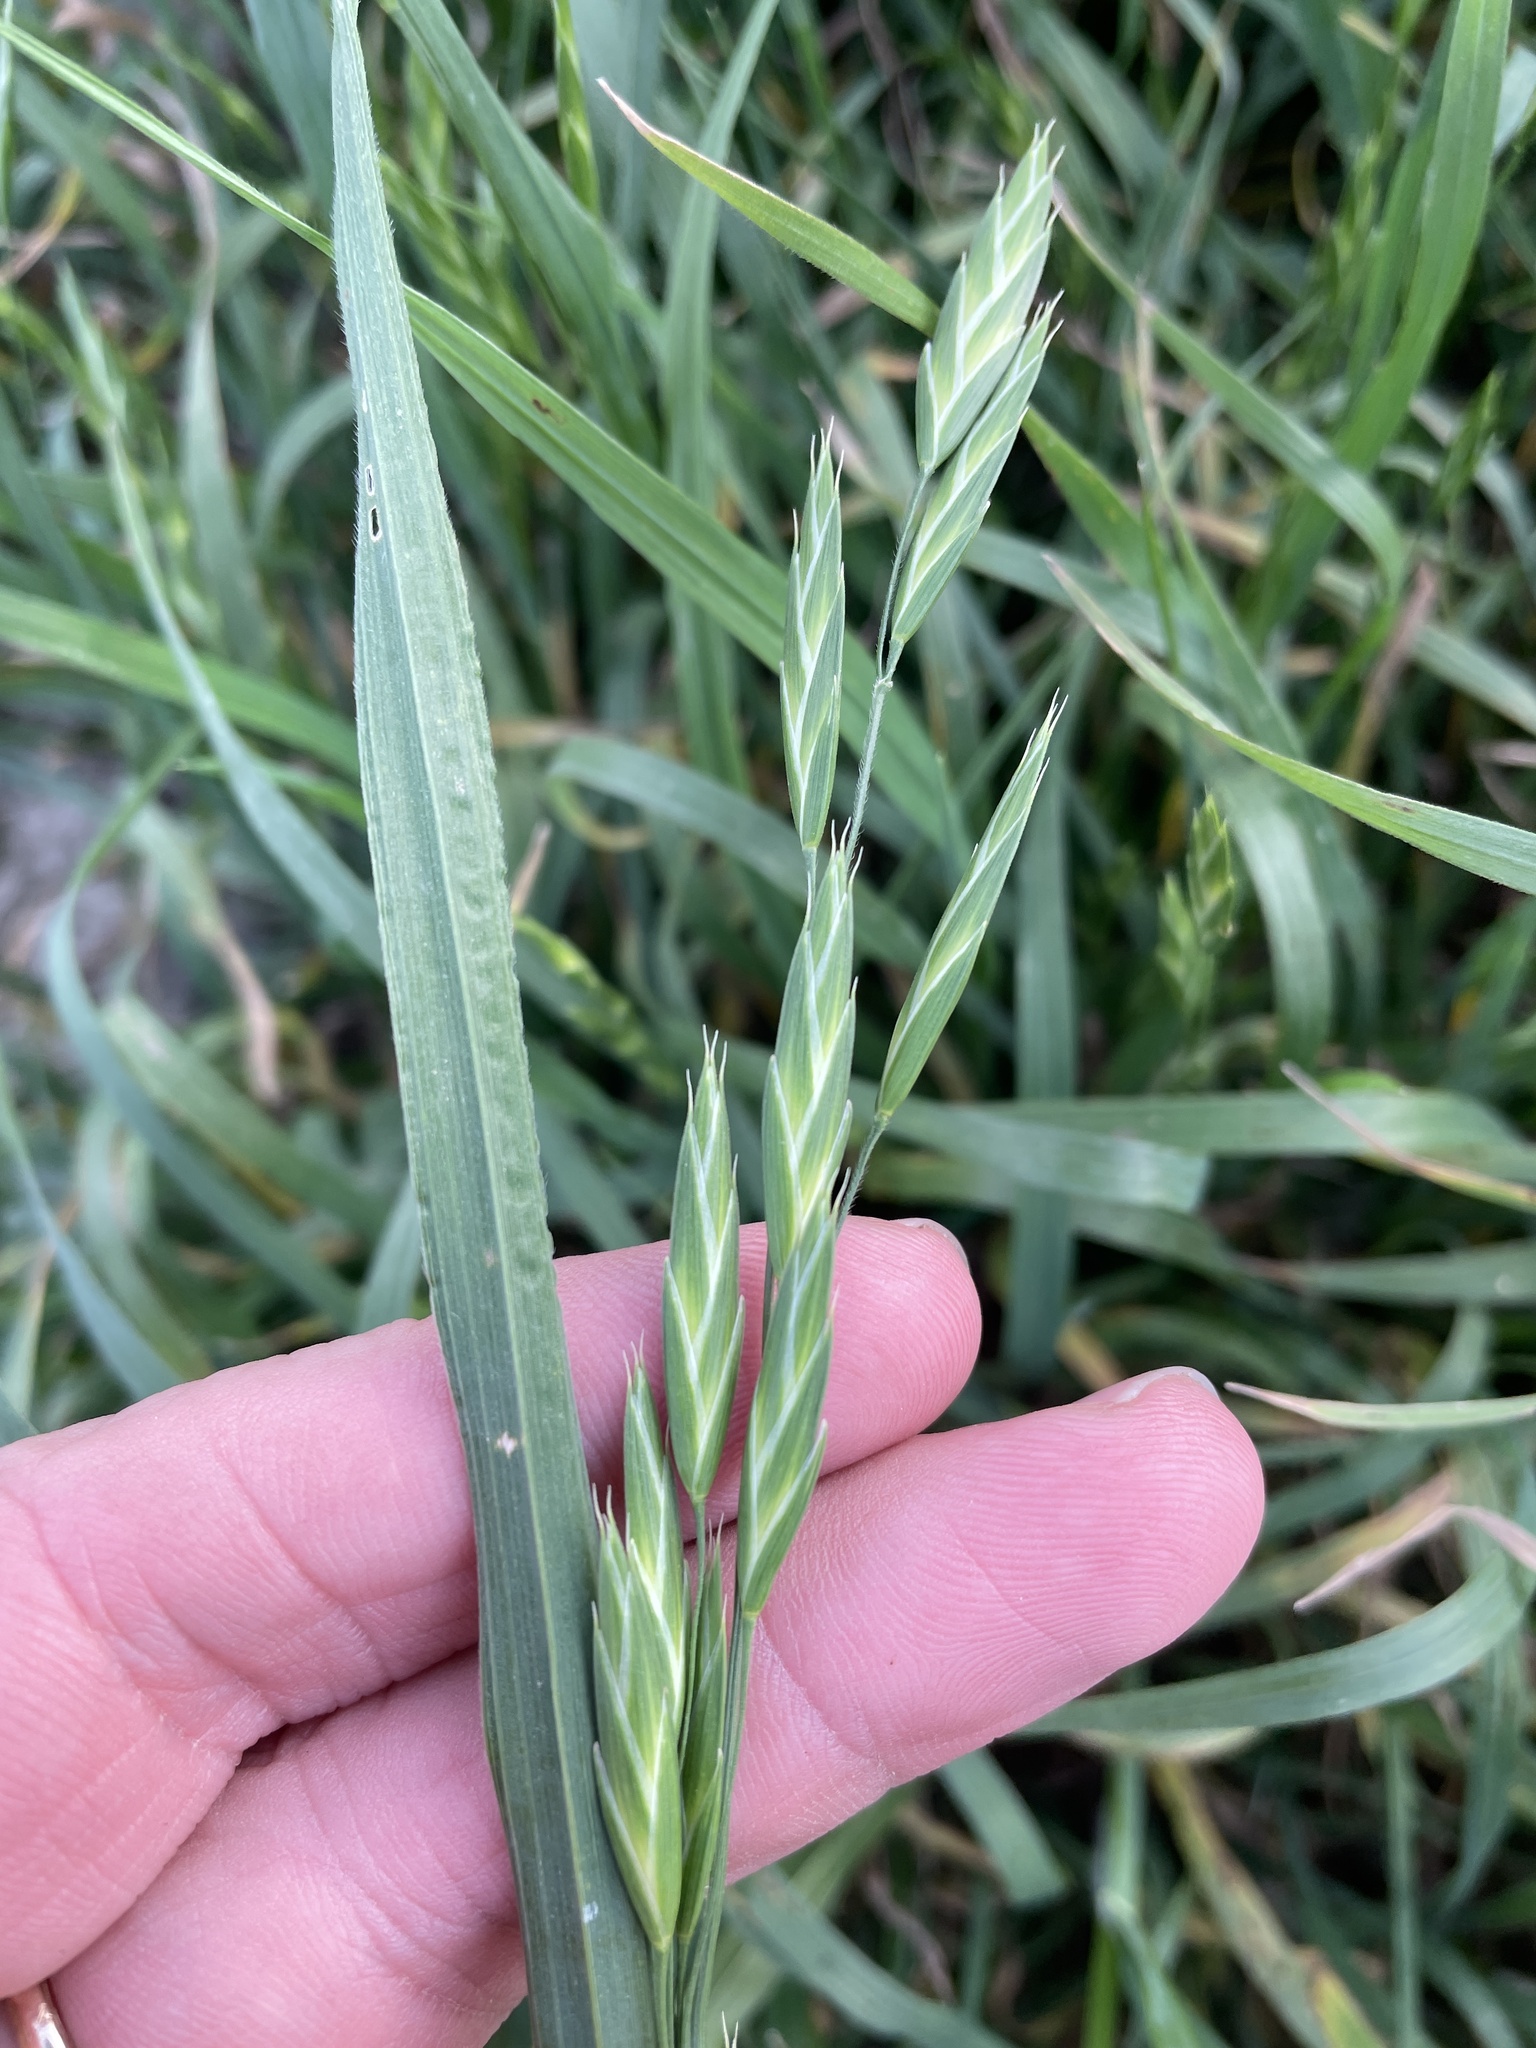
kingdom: Plantae
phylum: Tracheophyta
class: Liliopsida
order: Poales
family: Poaceae
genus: Bromus
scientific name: Bromus catharticus
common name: Rescuegrass
